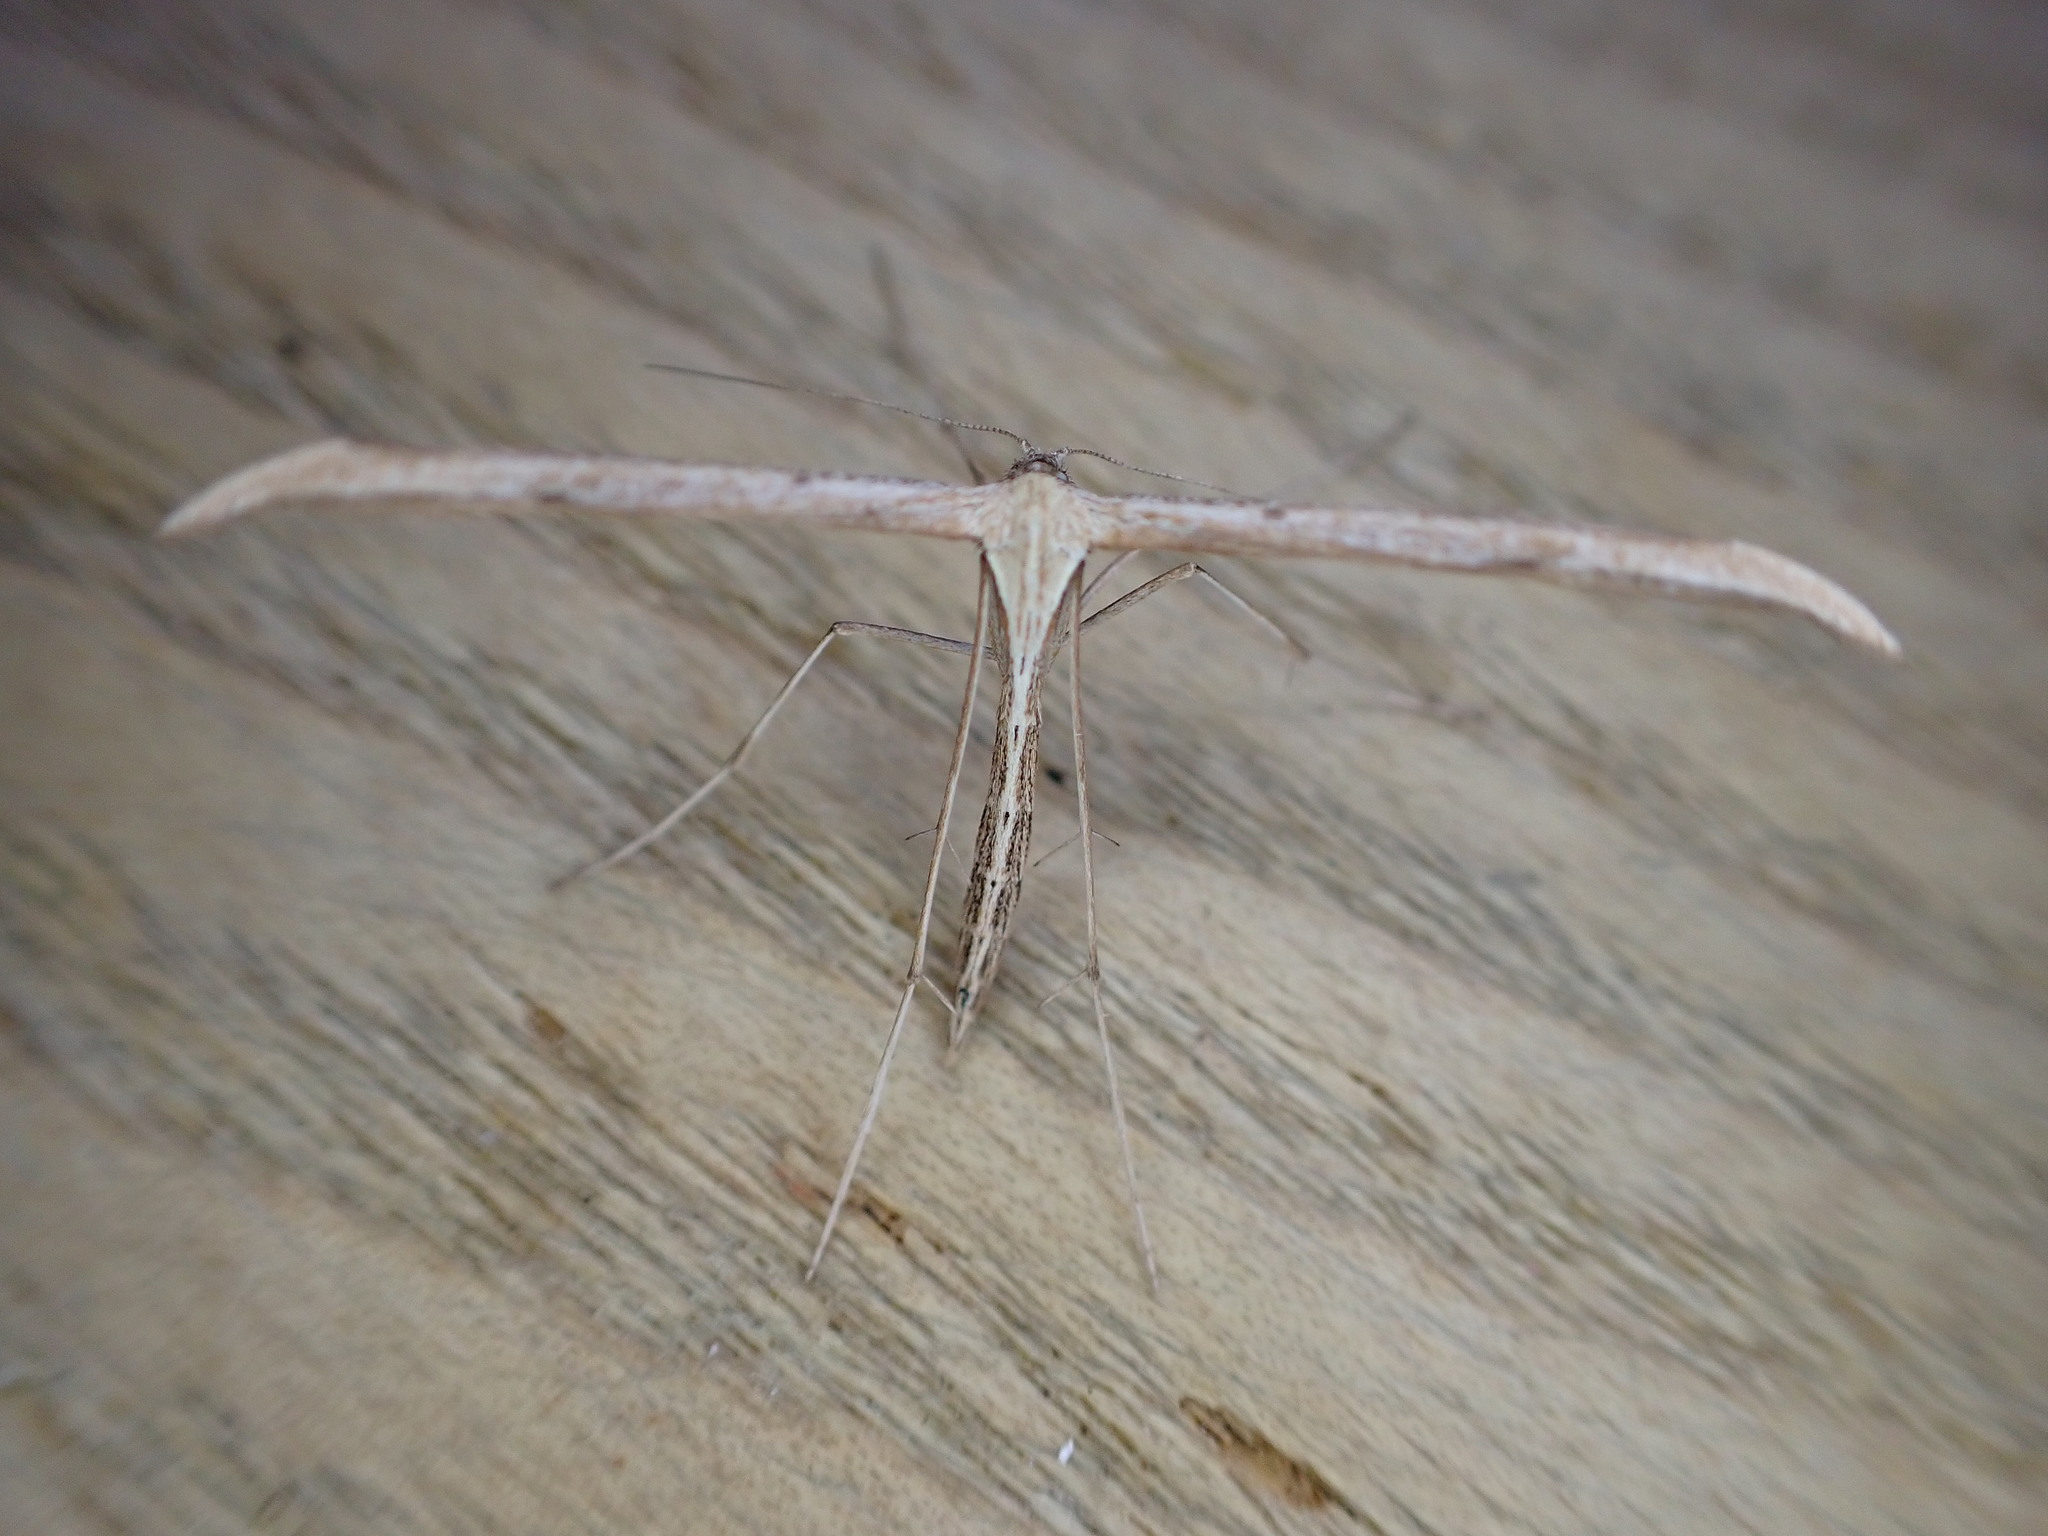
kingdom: Animalia
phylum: Arthropoda
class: Insecta
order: Lepidoptera
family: Pterophoridae
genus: Emmelina
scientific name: Emmelina monodactyla
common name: Common plume
